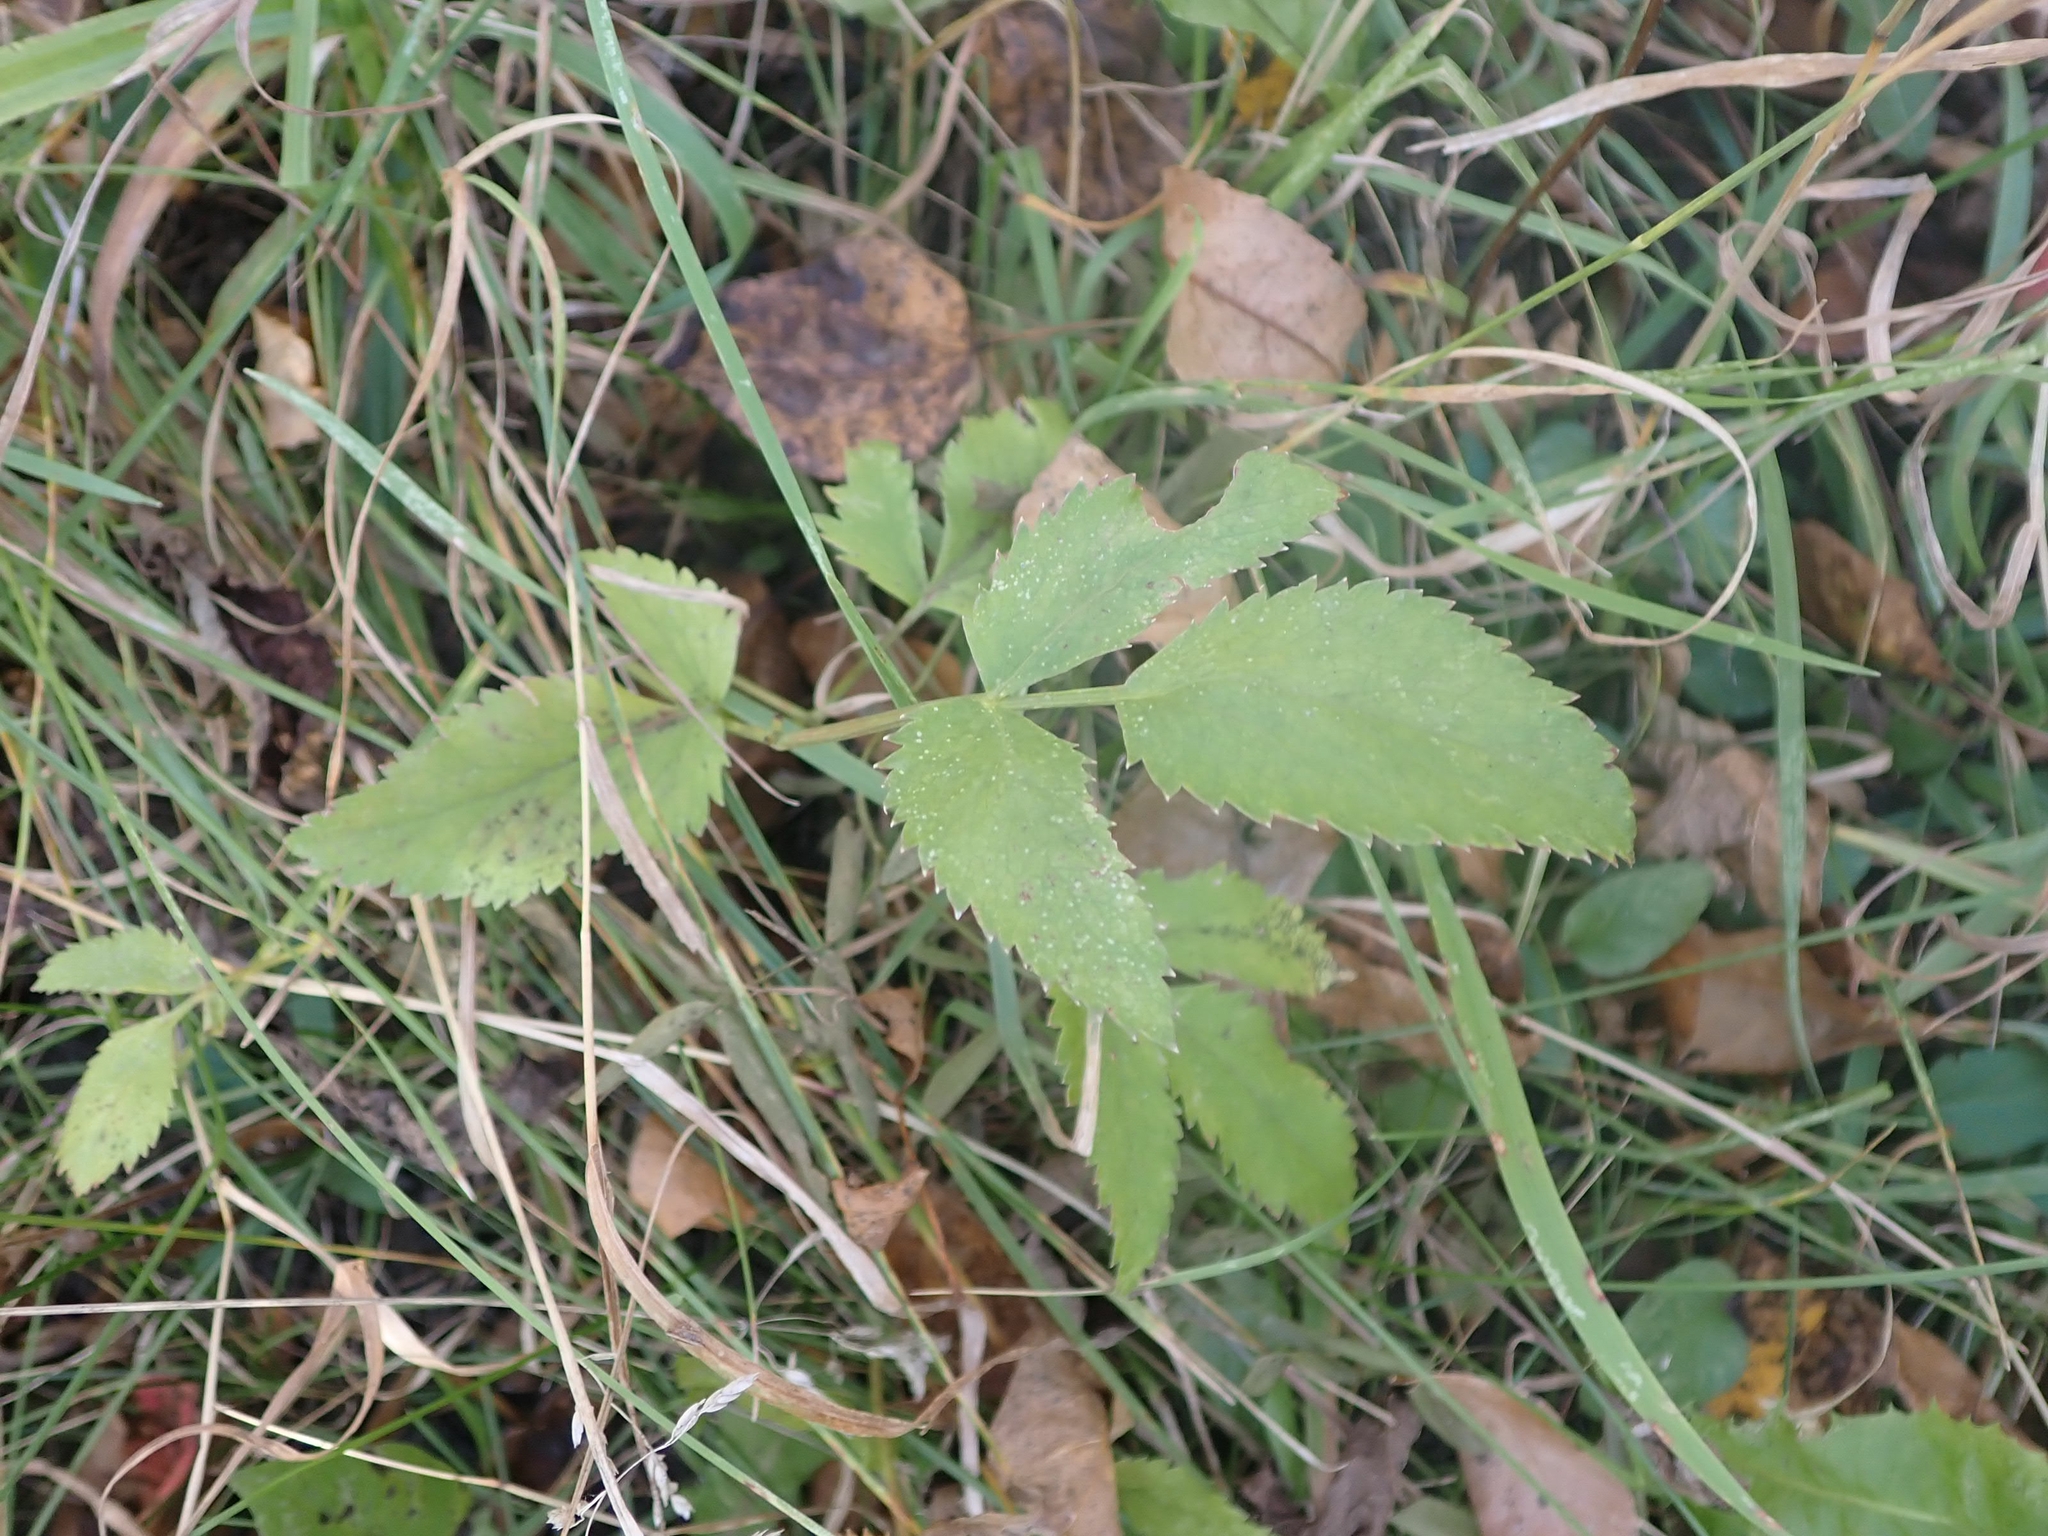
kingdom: Plantae
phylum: Tracheophyta
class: Magnoliopsida
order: Apiales
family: Apiaceae
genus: Zizia
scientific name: Zizia aurea
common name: Golden alexanders
